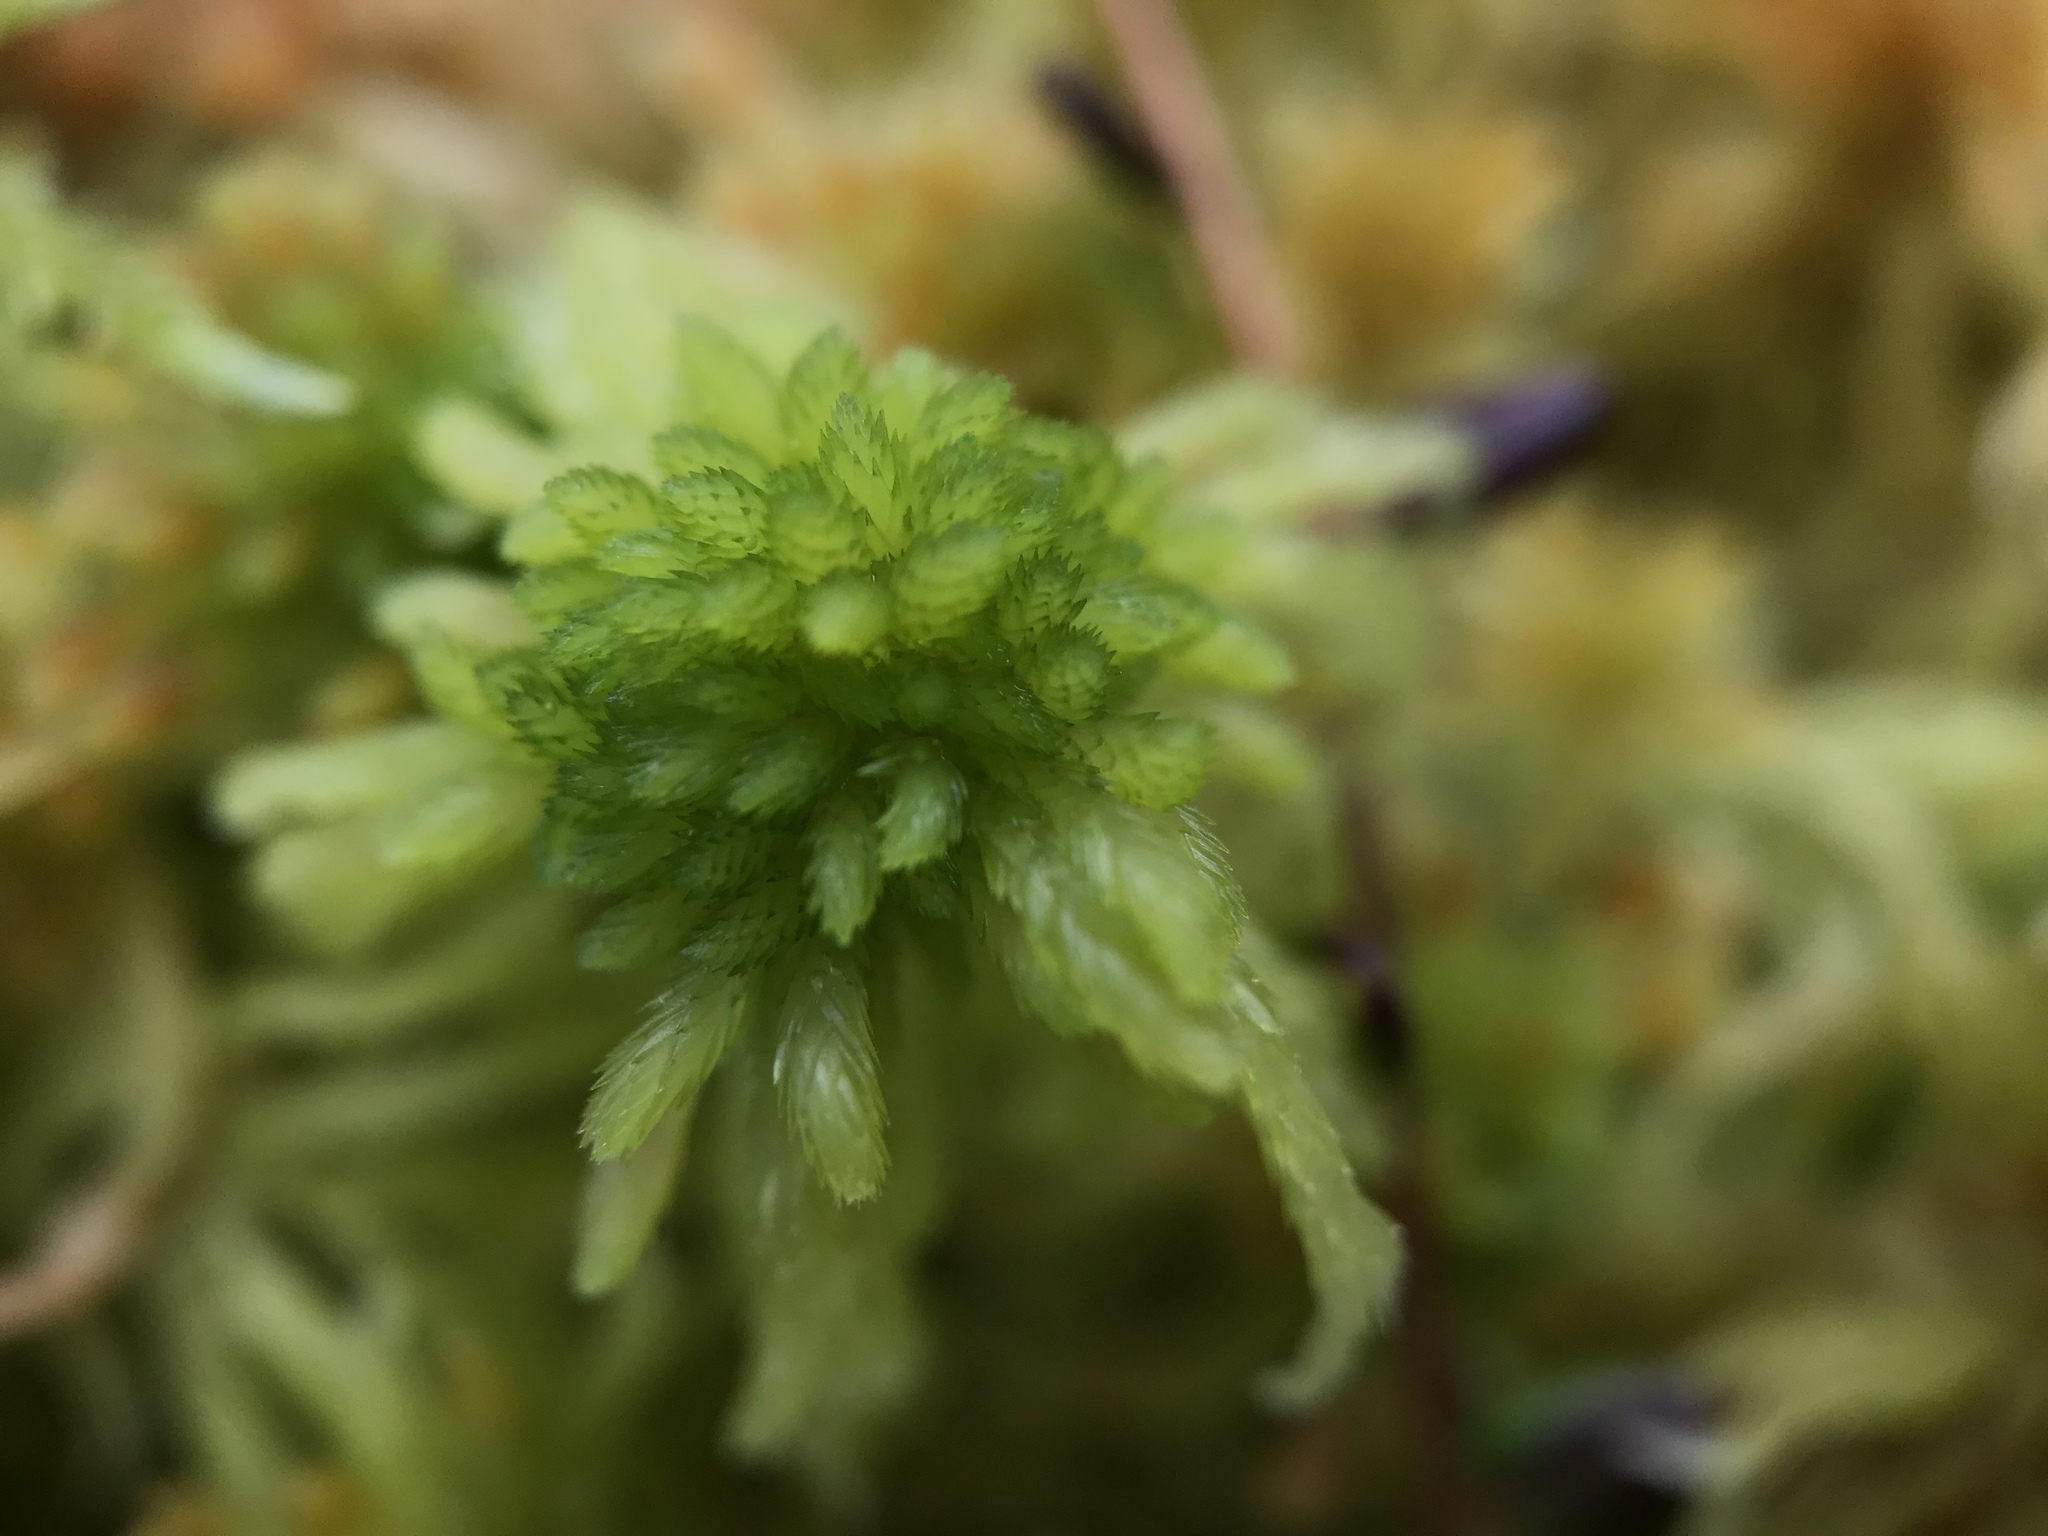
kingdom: Plantae
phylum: Bryophyta
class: Sphagnopsida
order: Sphagnales
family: Sphagnaceae
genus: Sphagnum
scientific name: Sphagnum flexuosum
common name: Flexible peat moss
